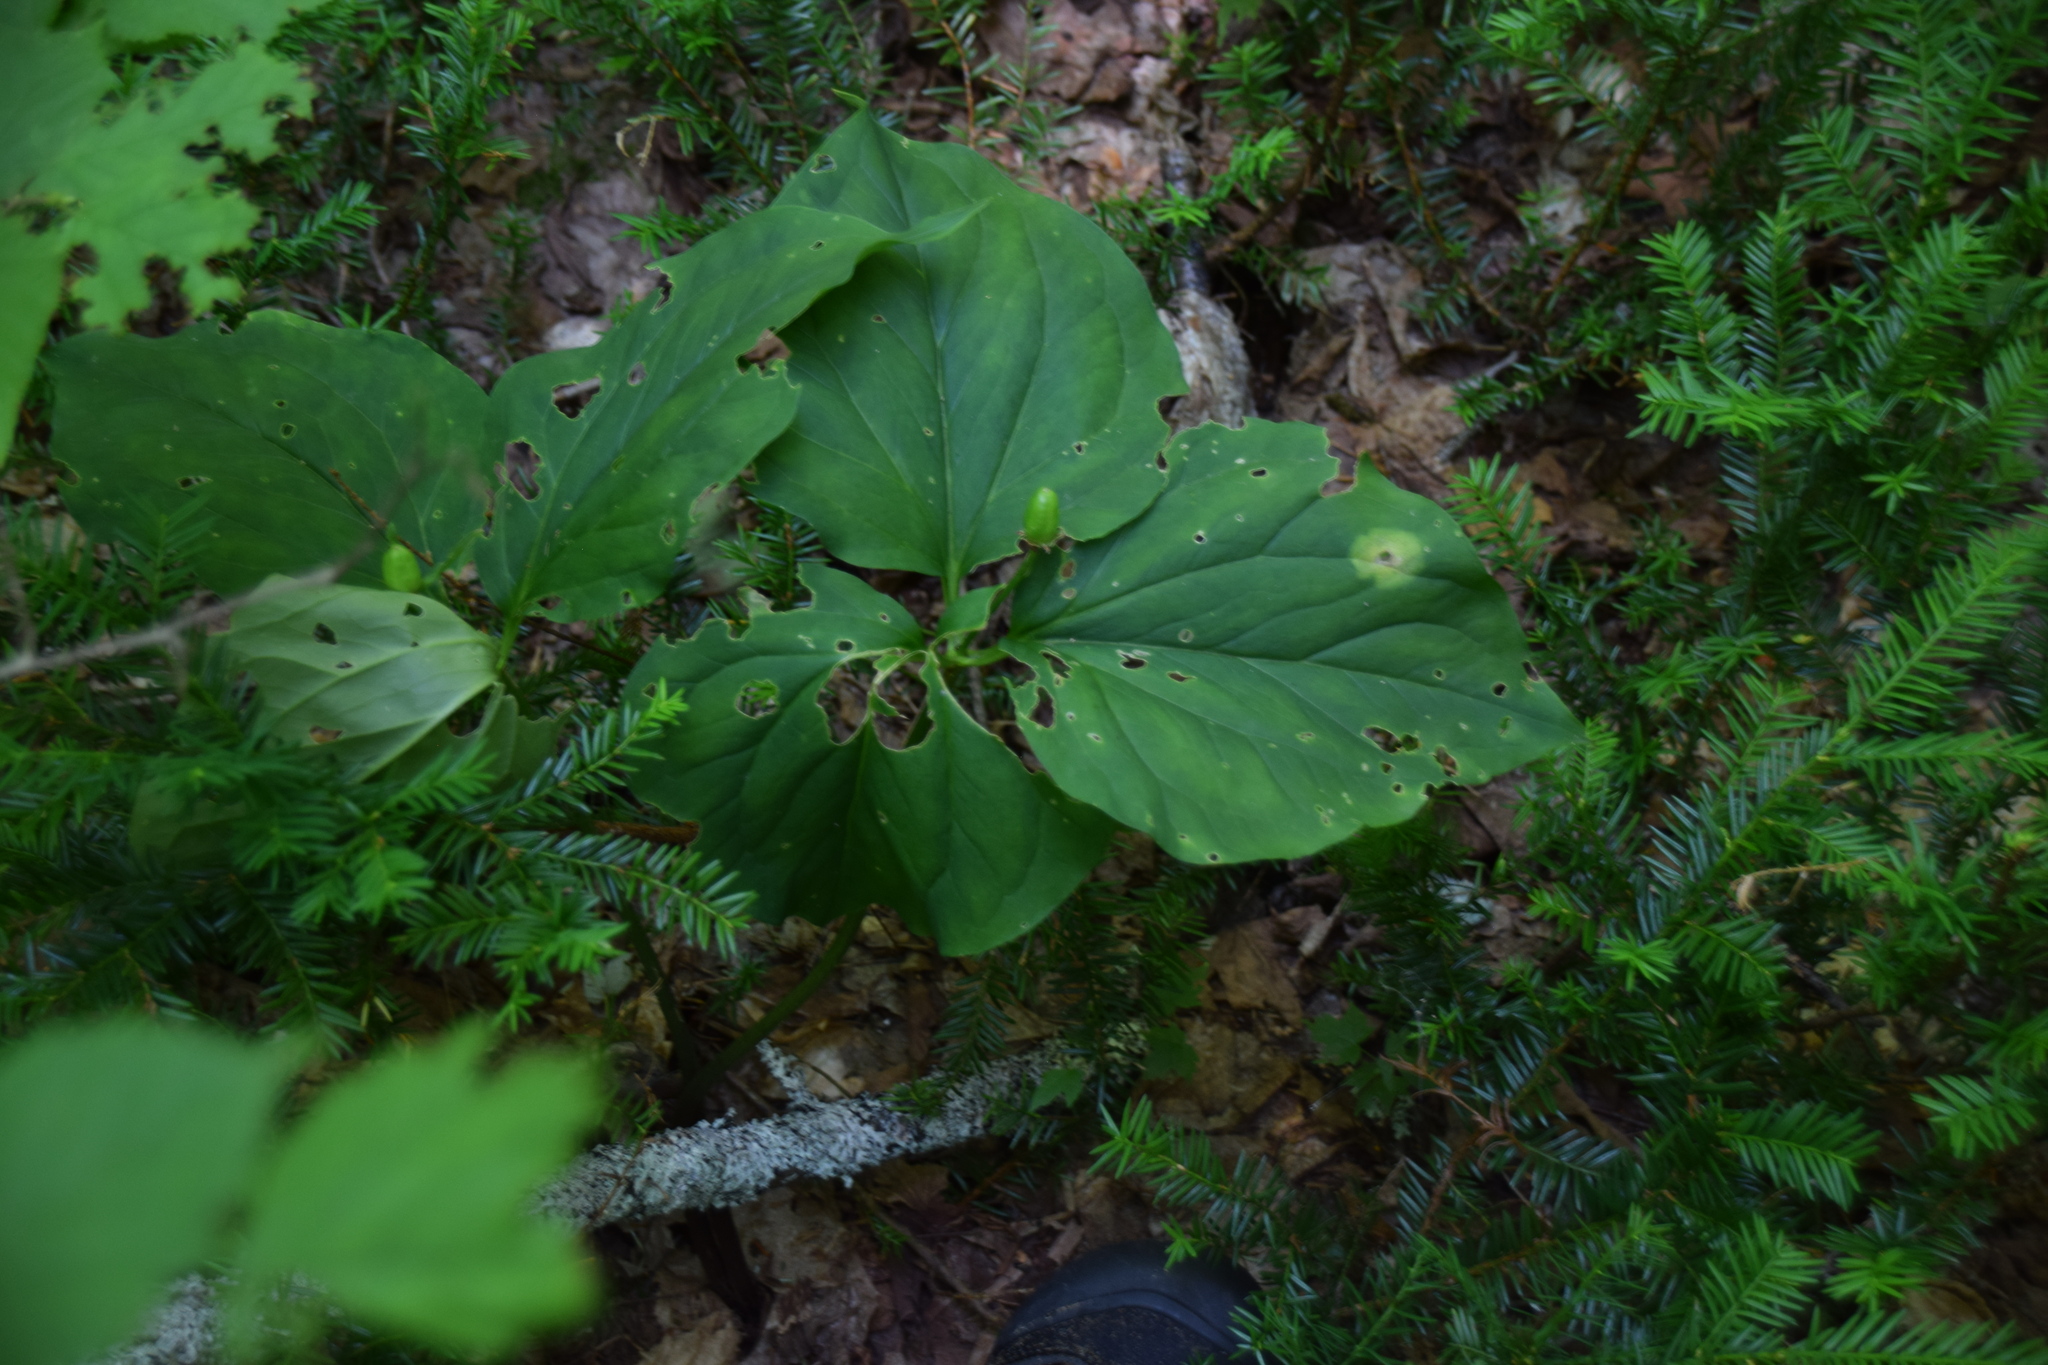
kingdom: Plantae
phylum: Tracheophyta
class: Liliopsida
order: Liliales
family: Melanthiaceae
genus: Trillium
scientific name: Trillium undulatum
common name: Paint trillium
